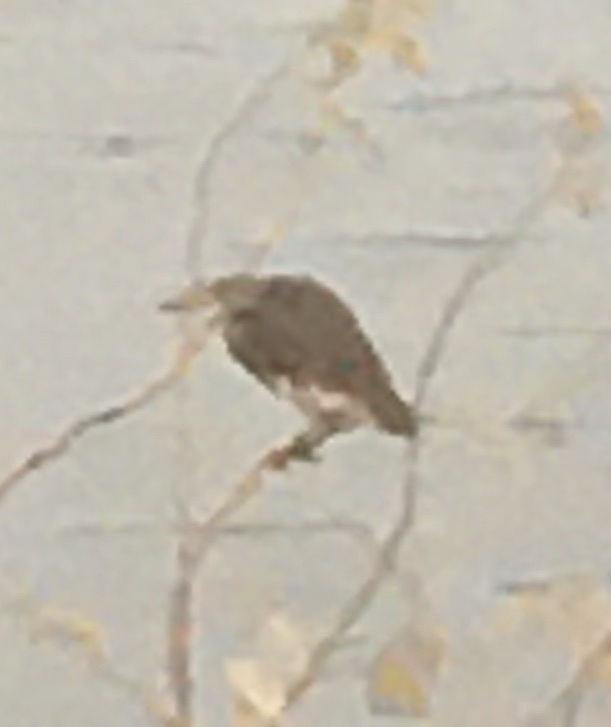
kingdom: Animalia
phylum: Chordata
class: Aves
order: Pelecaniformes
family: Ardeidae
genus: Ardeola
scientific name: Ardeola grayii
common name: Indian pond heron
